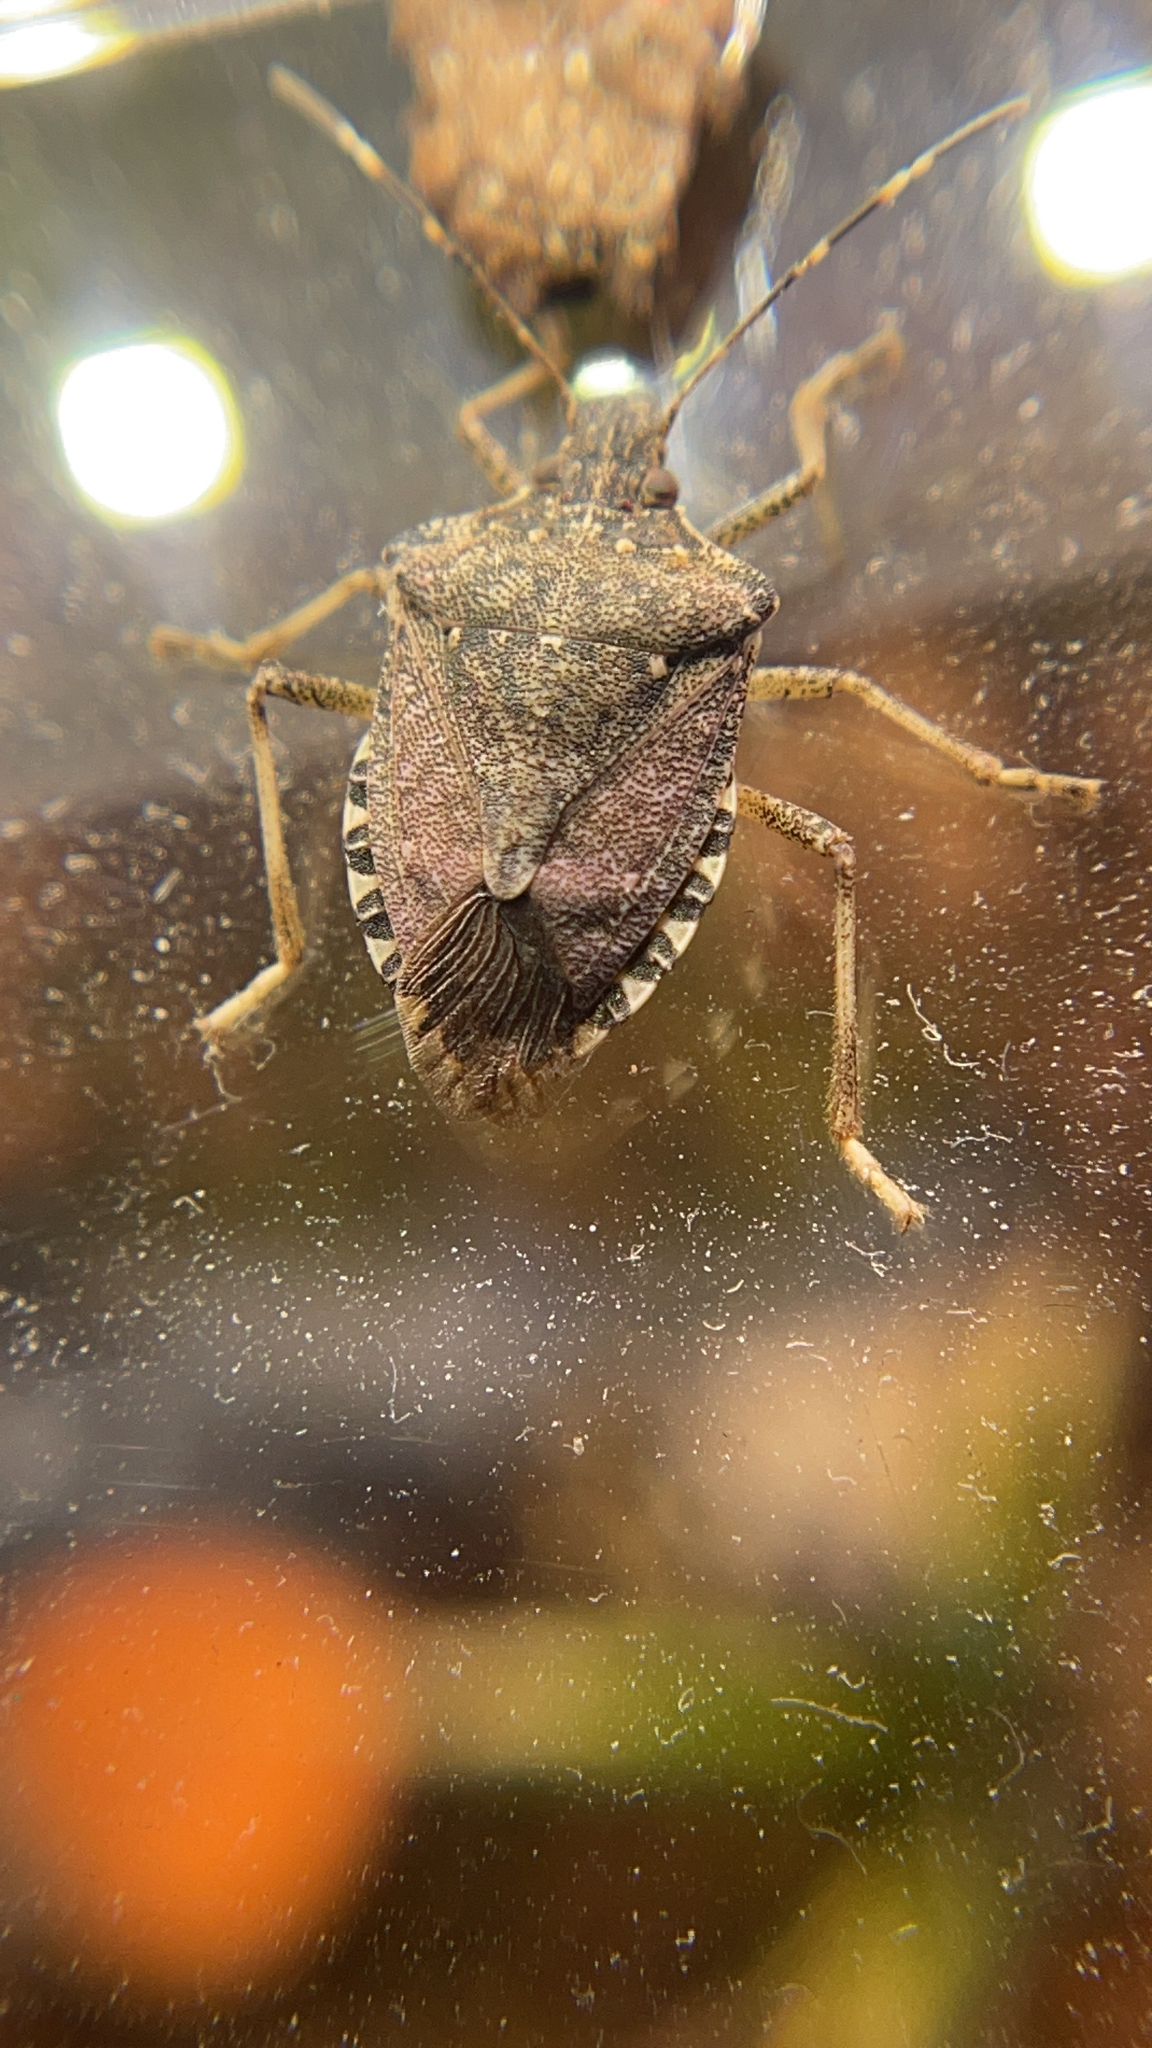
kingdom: Animalia
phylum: Arthropoda
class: Insecta
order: Hemiptera
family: Pentatomidae
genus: Halyomorpha
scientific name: Halyomorpha halys
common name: Brown marmorated stink bug
